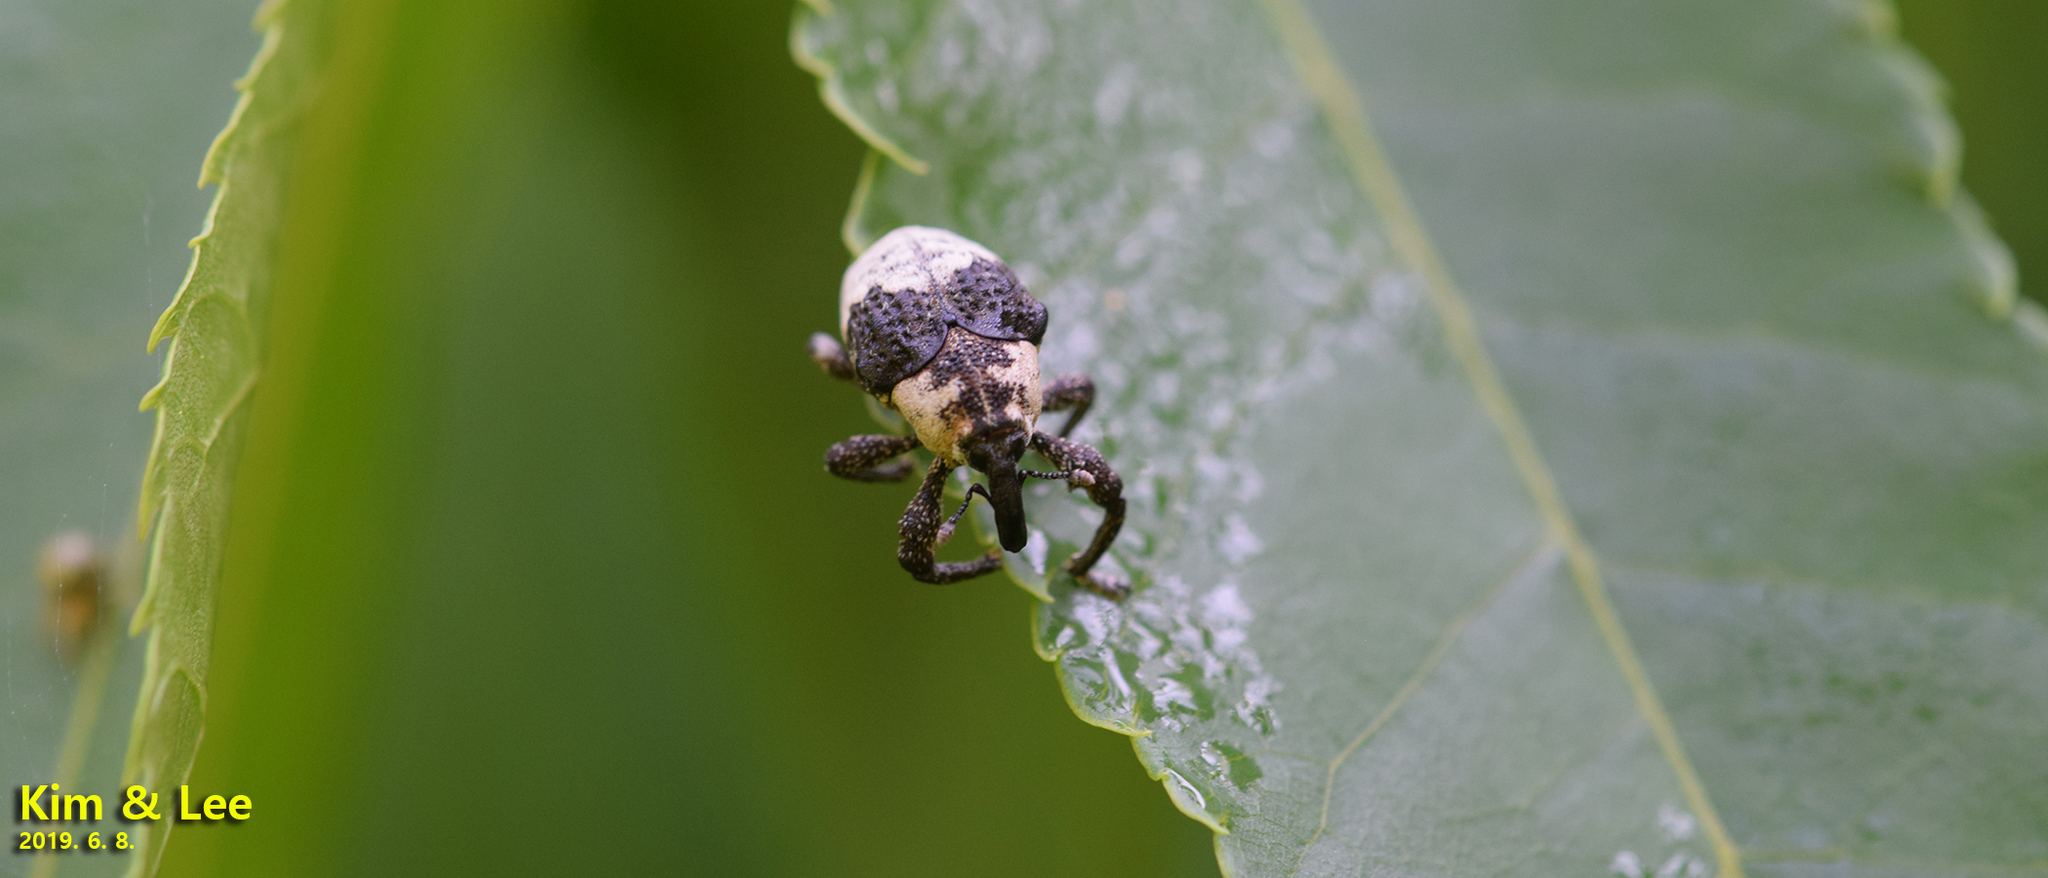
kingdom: Animalia
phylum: Arthropoda
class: Insecta
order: Coleoptera
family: Curculionidae
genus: Alcides
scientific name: Alcides trifidus
